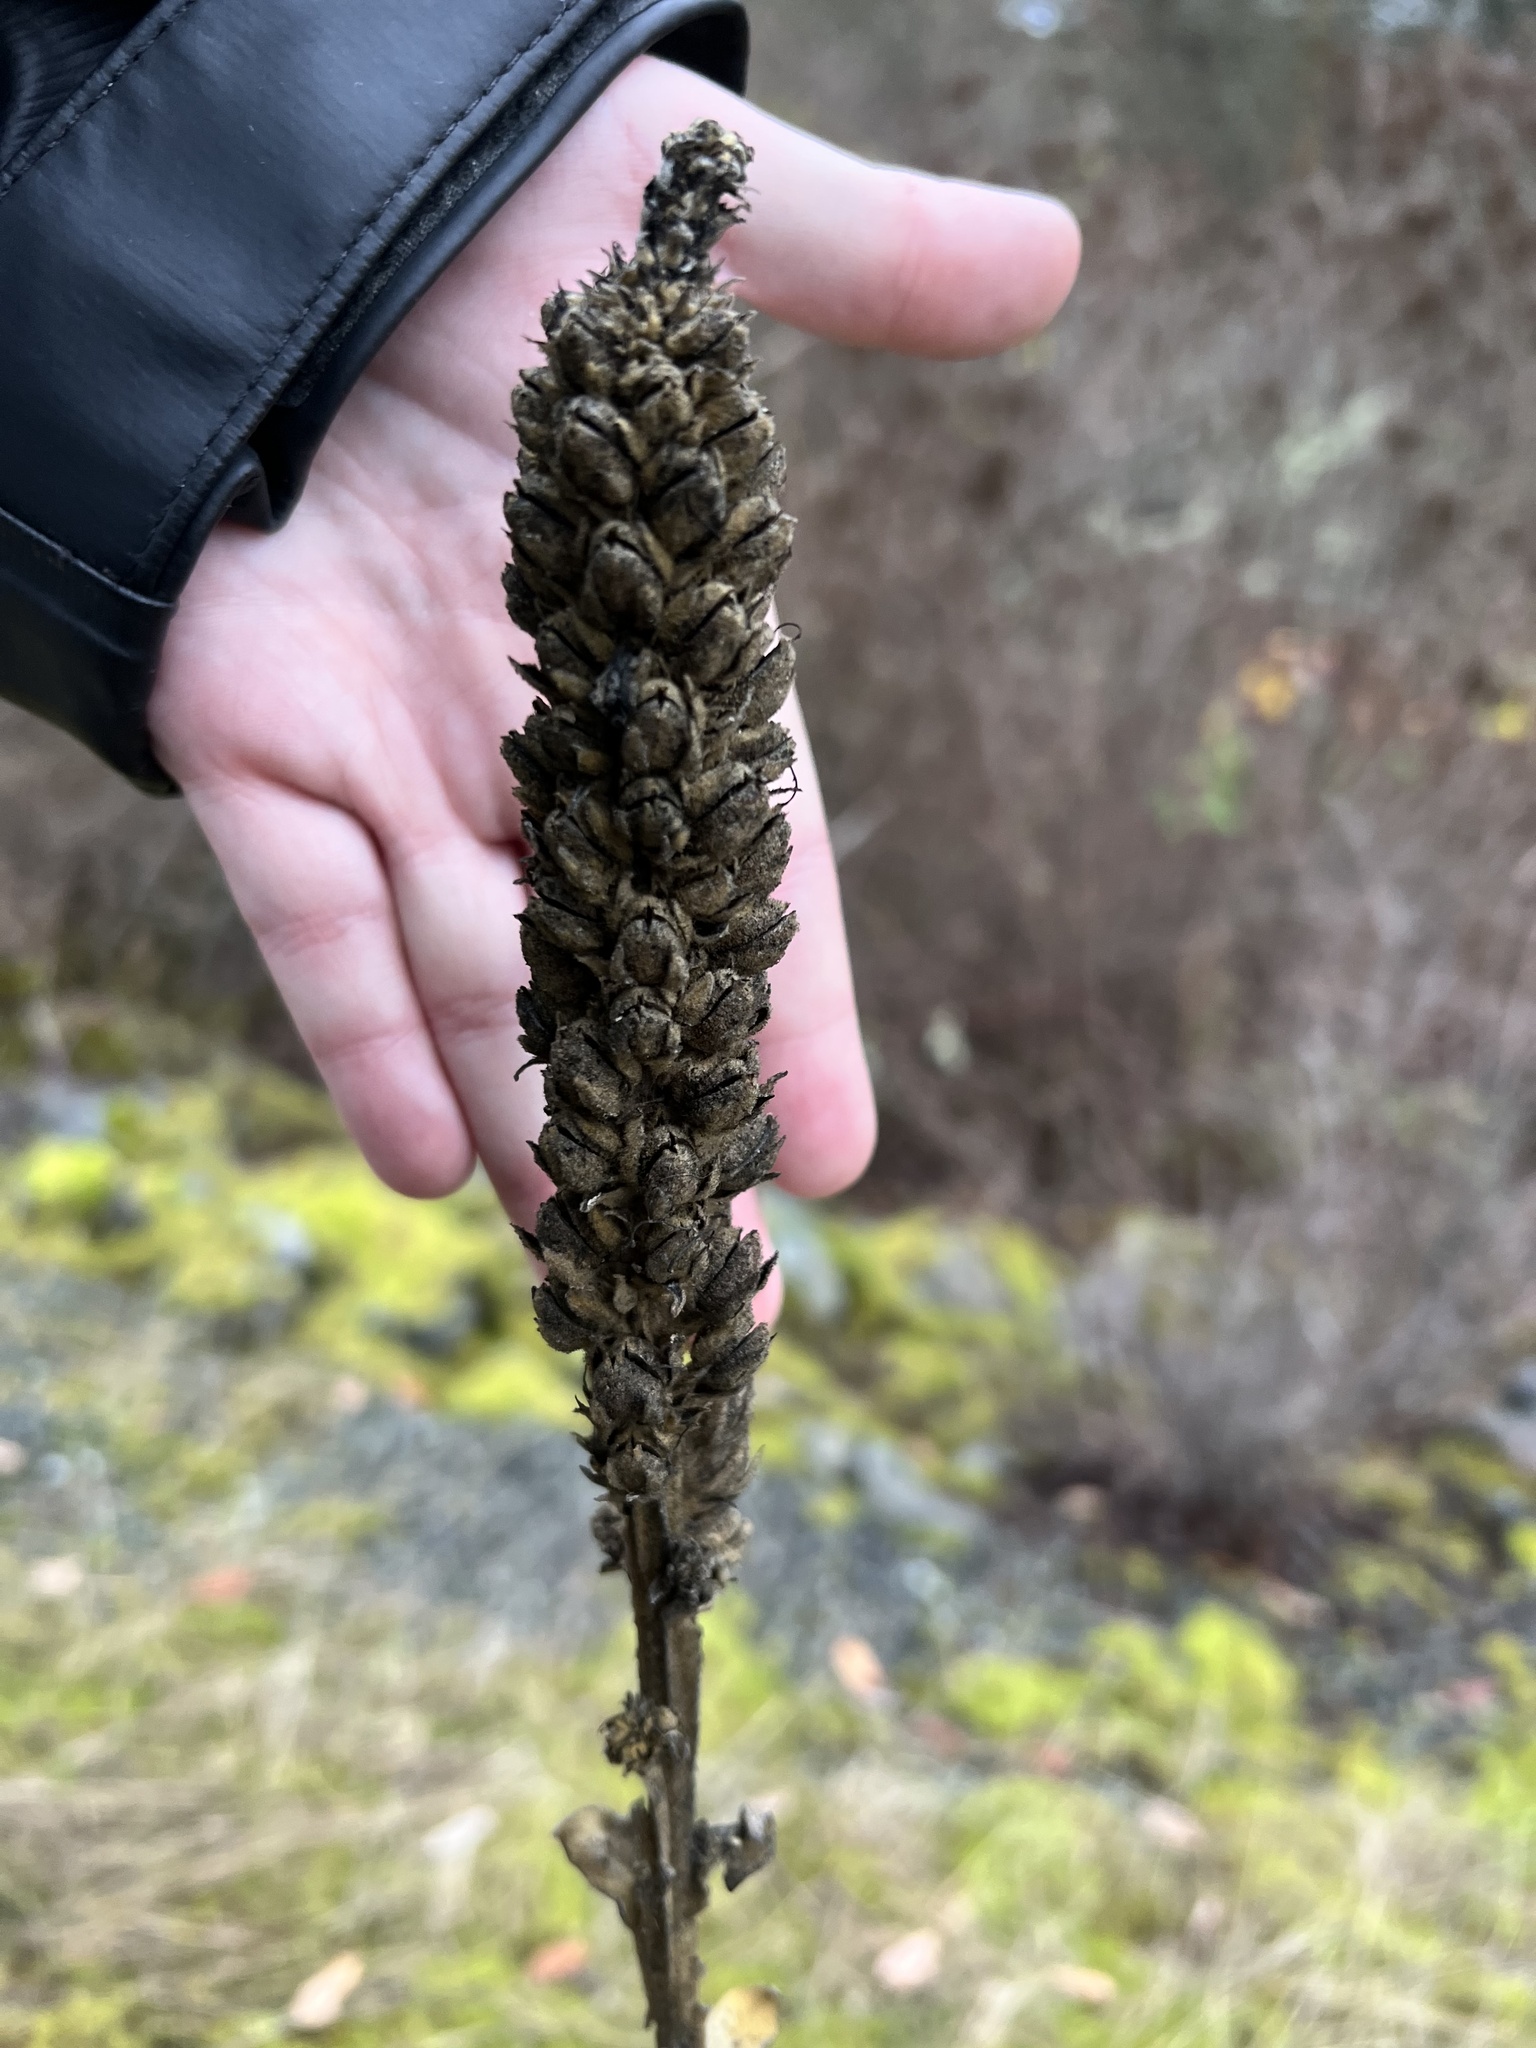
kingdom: Plantae
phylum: Tracheophyta
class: Magnoliopsida
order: Lamiales
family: Scrophulariaceae
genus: Verbascum
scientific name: Verbascum thapsus
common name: Common mullein
